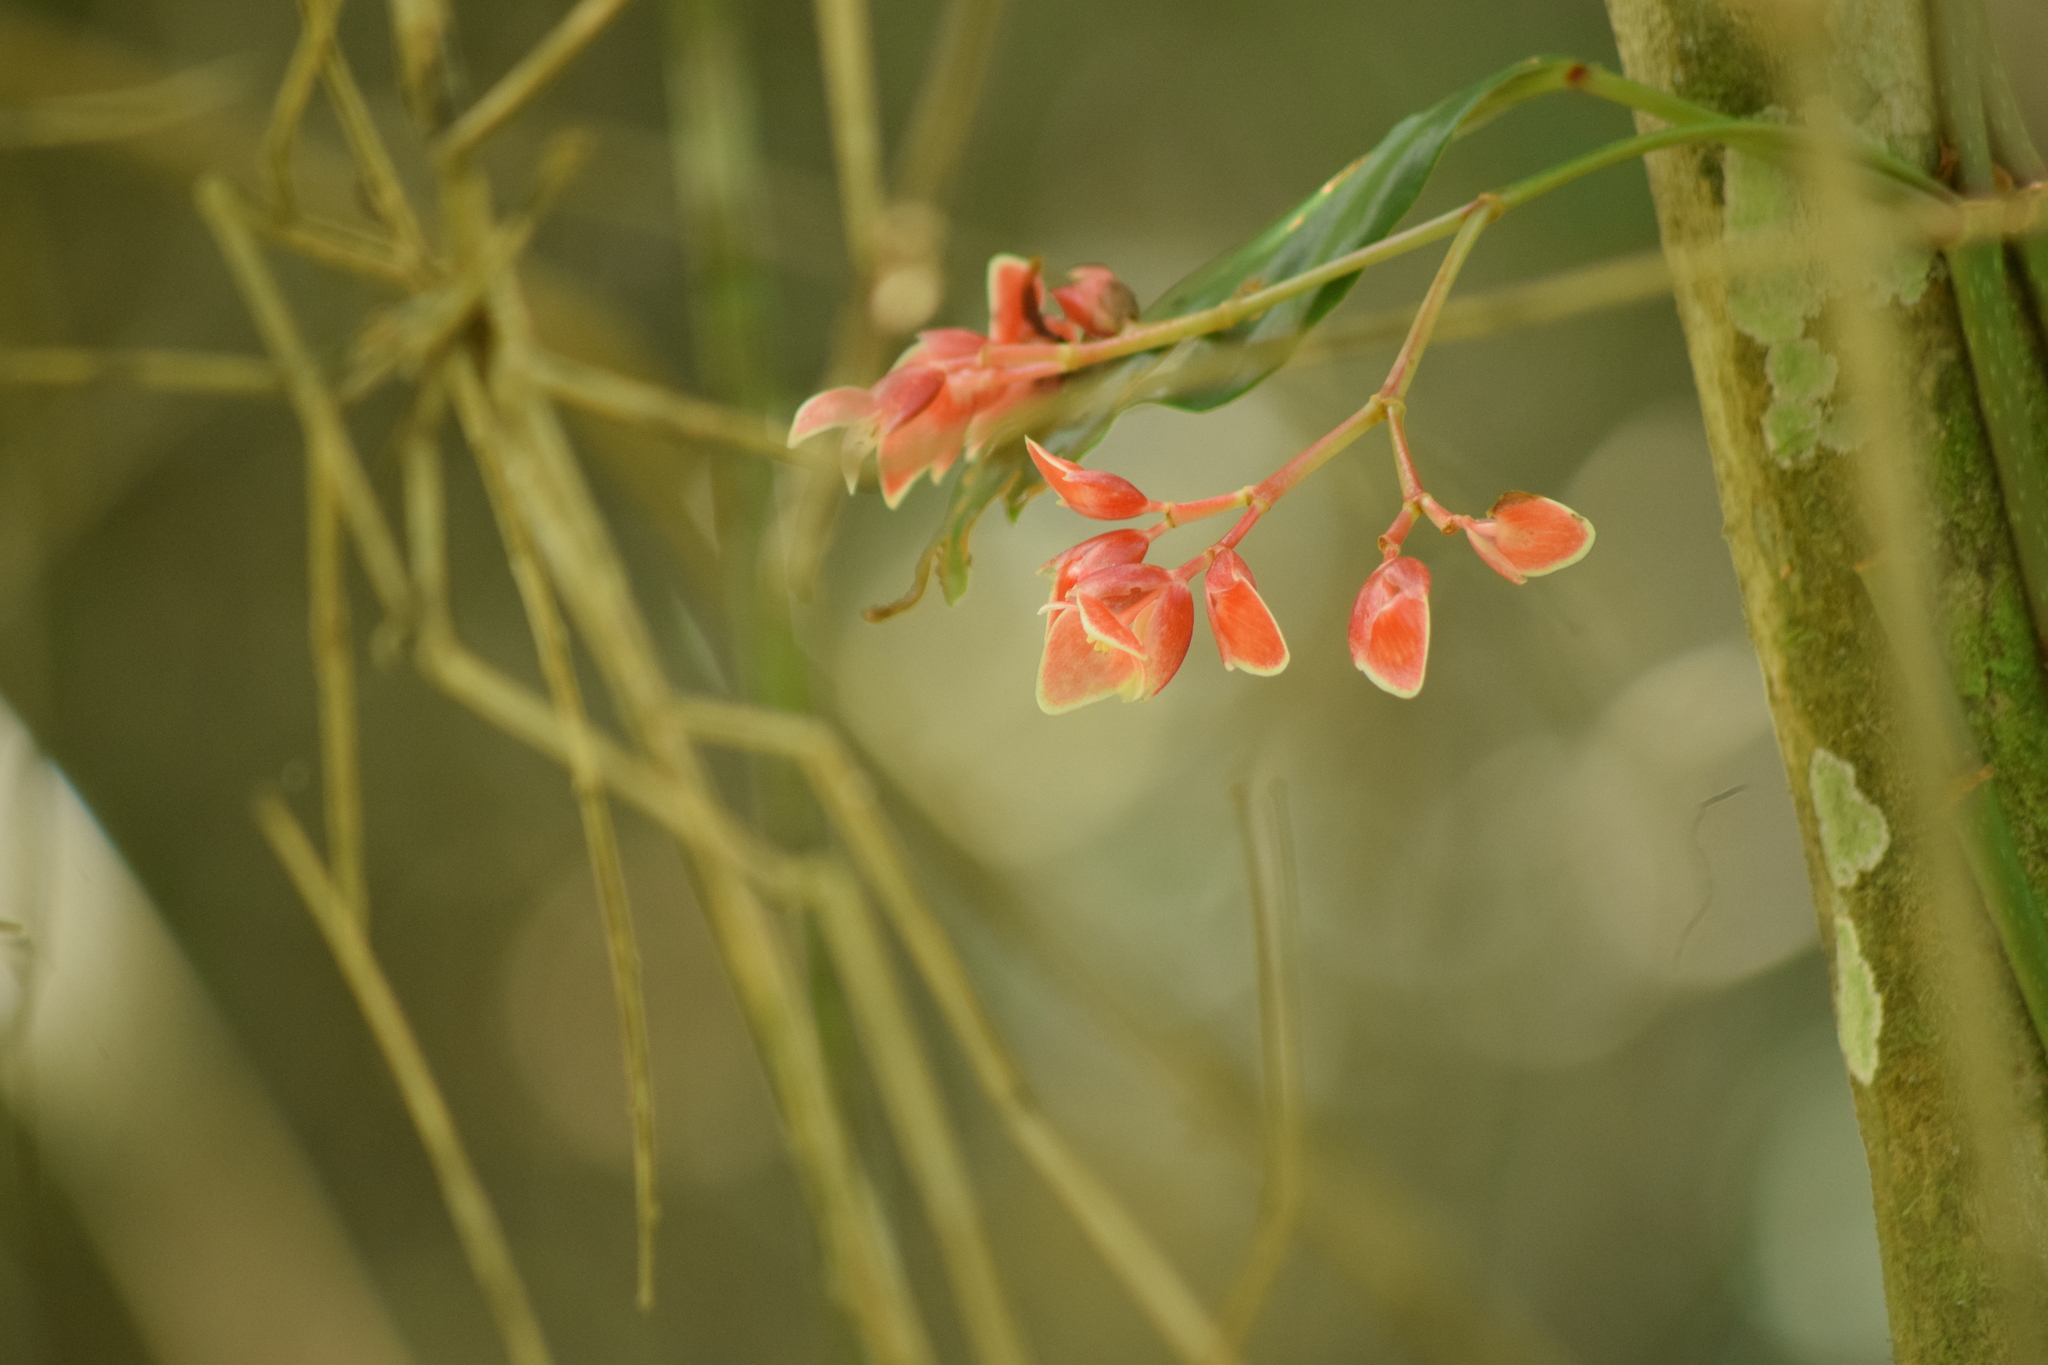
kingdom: Plantae
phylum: Tracheophyta
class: Magnoliopsida
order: Cucurbitales
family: Begoniaceae
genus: Begonia
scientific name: Begonia radicans
